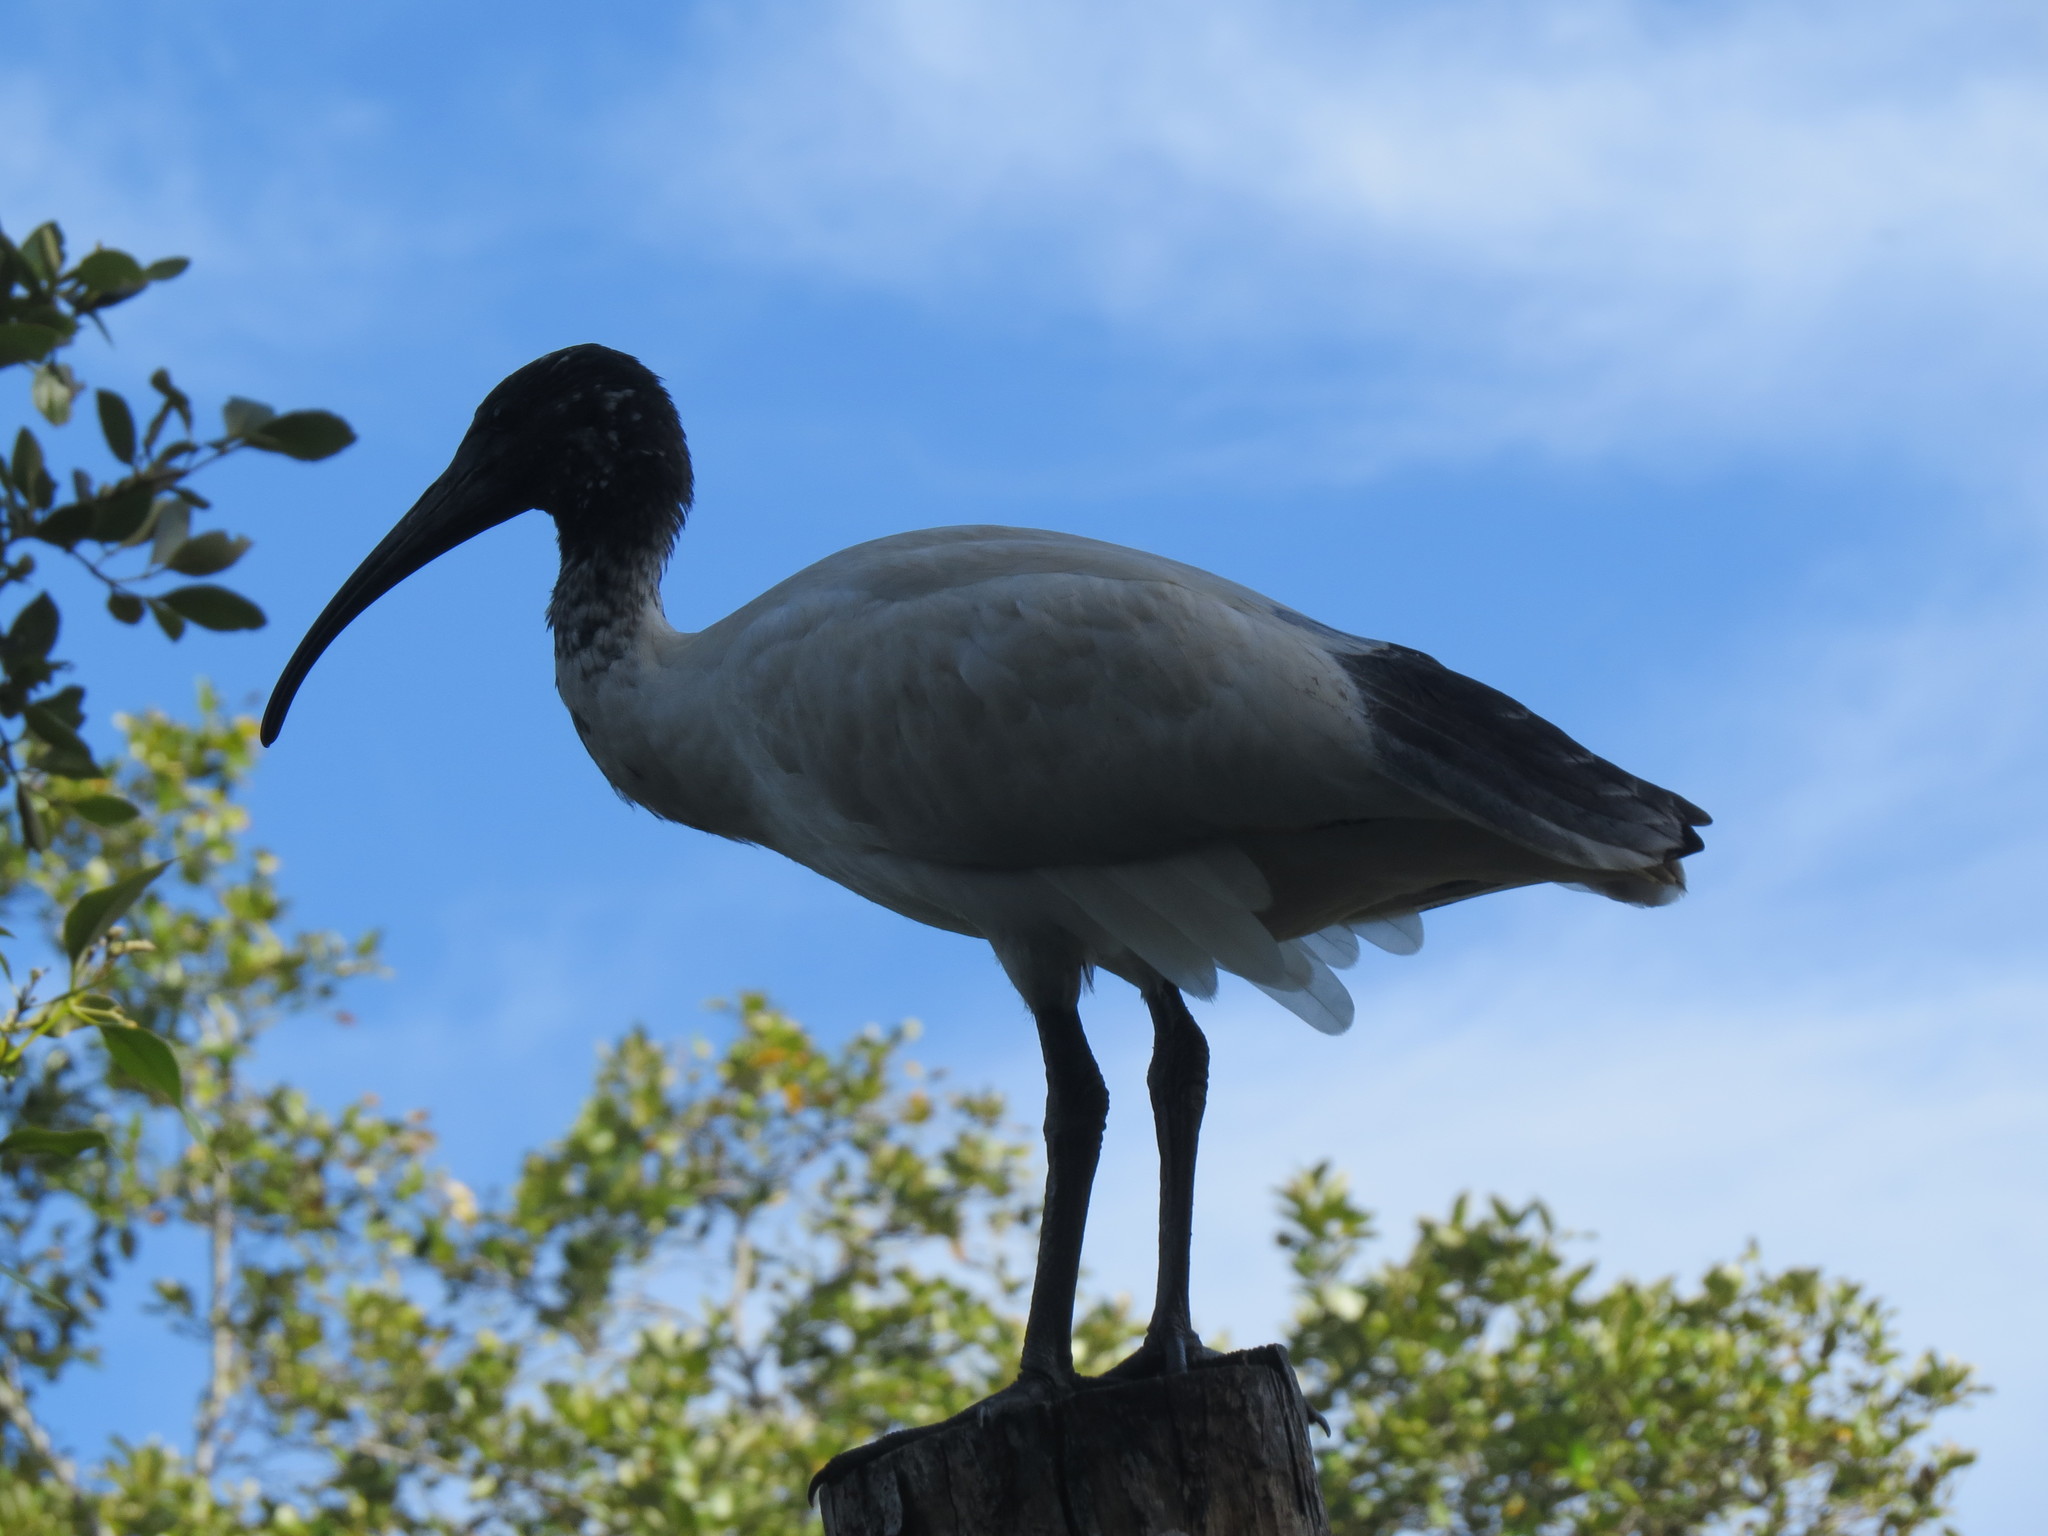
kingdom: Animalia
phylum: Chordata
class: Aves
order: Pelecaniformes
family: Threskiornithidae
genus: Threskiornis
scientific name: Threskiornis molucca
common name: Australian white ibis
